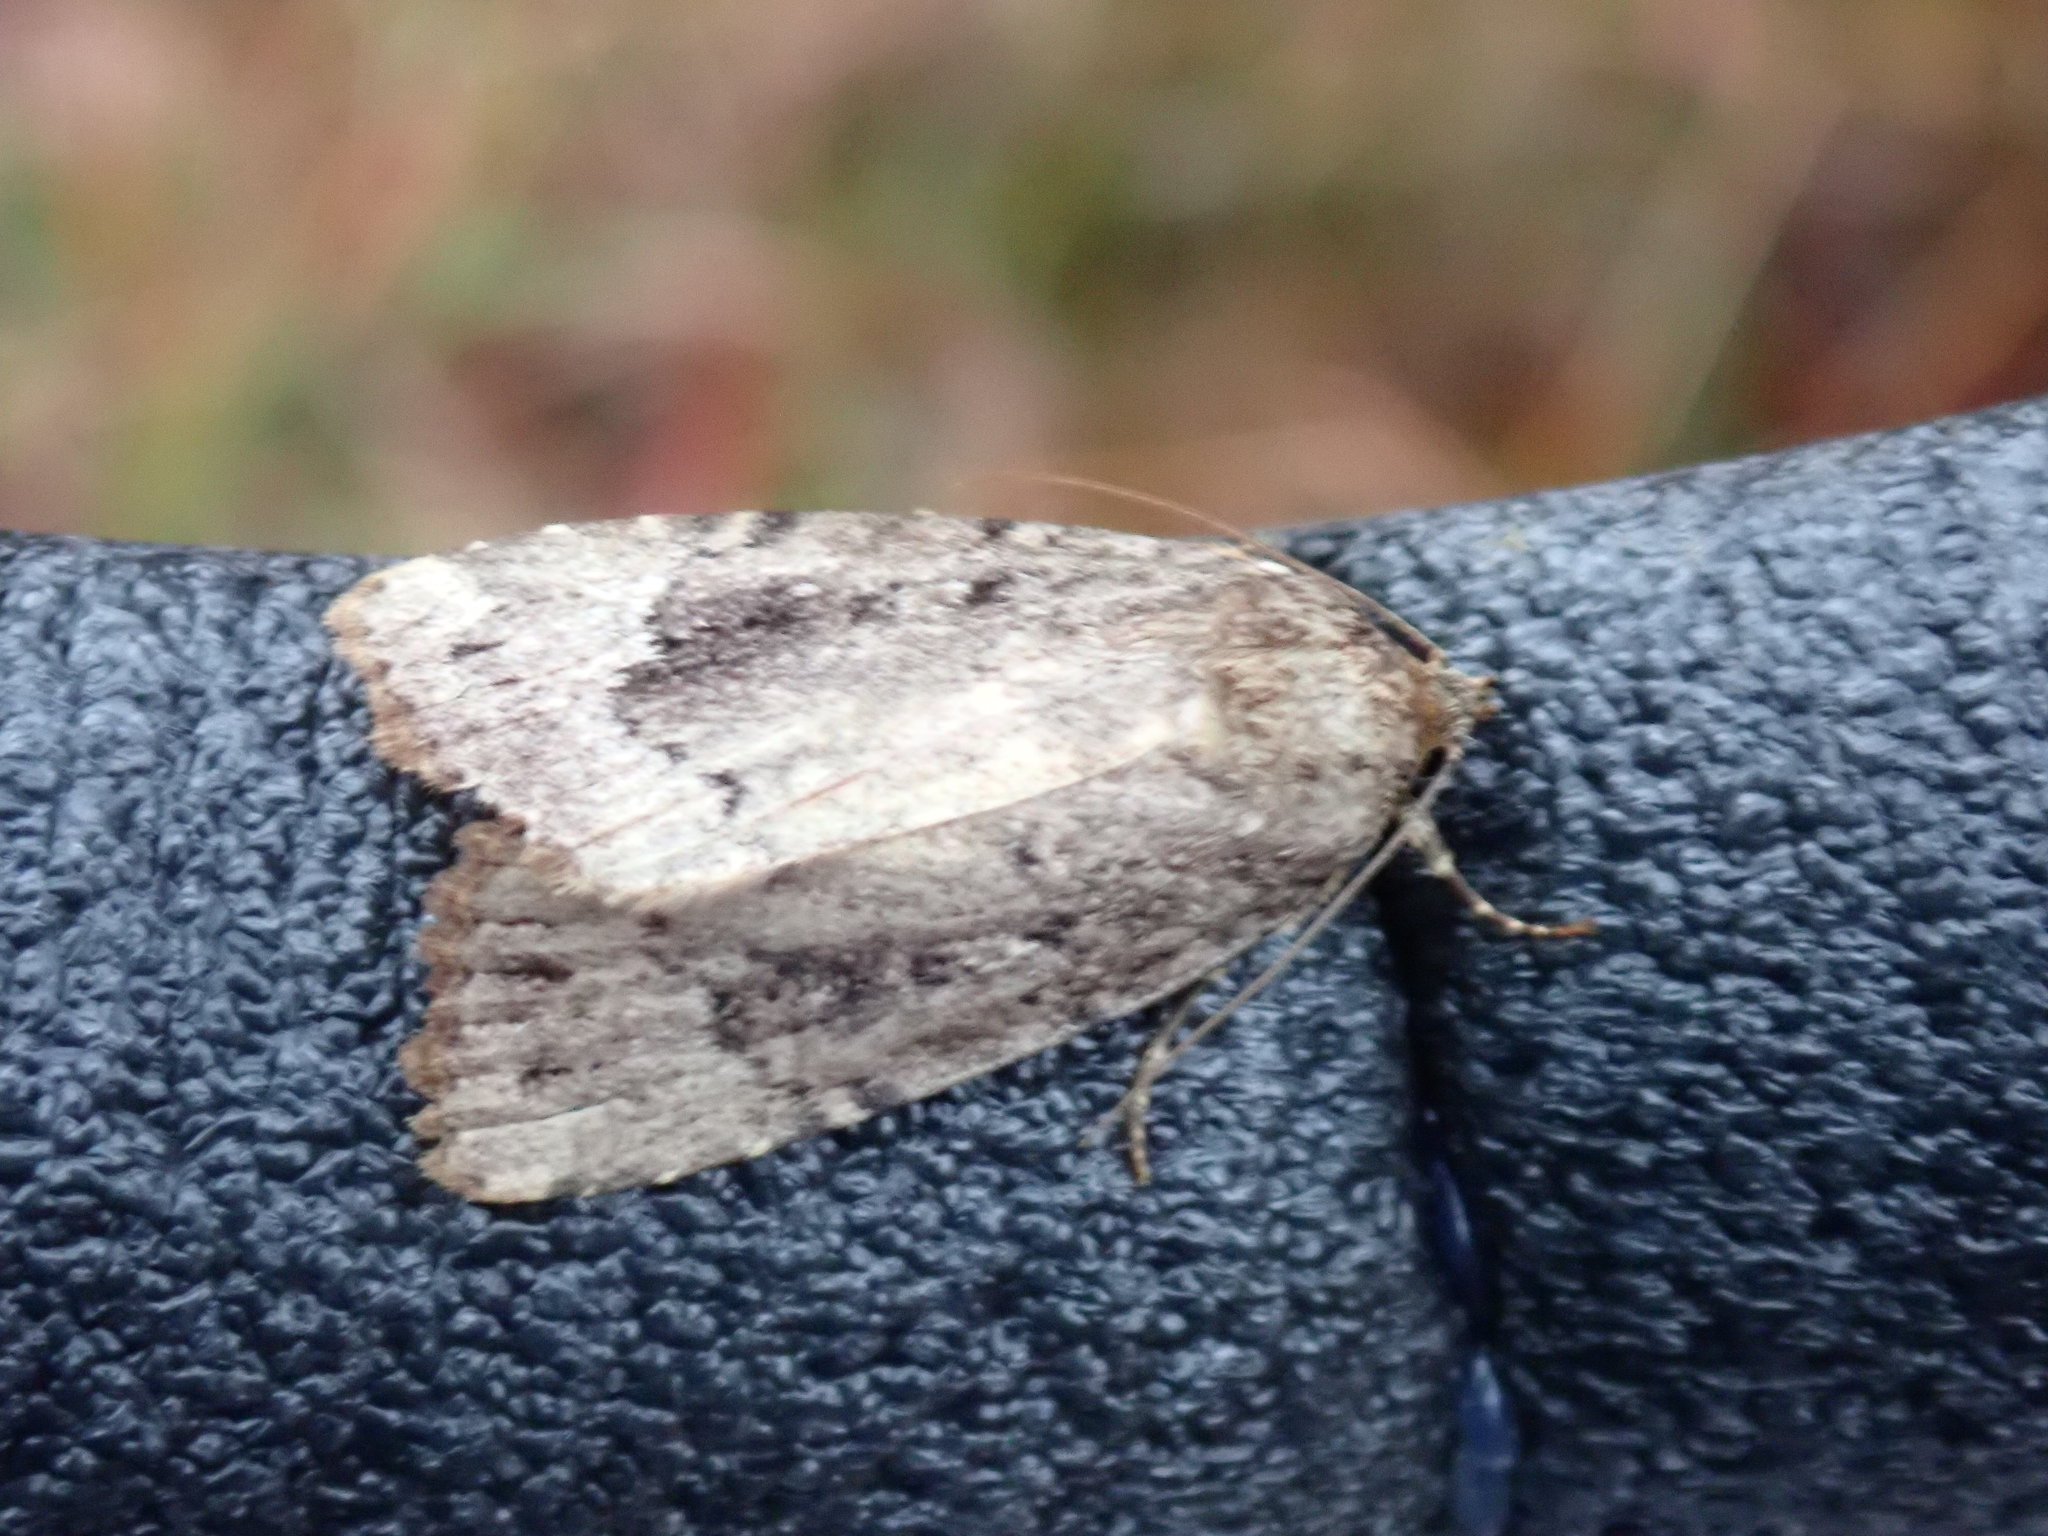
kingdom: Animalia
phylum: Arthropoda
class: Insecta
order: Lepidoptera
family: Noctuidae
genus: Amphipyra
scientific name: Amphipyra pyramidoides
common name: American copper underwing
